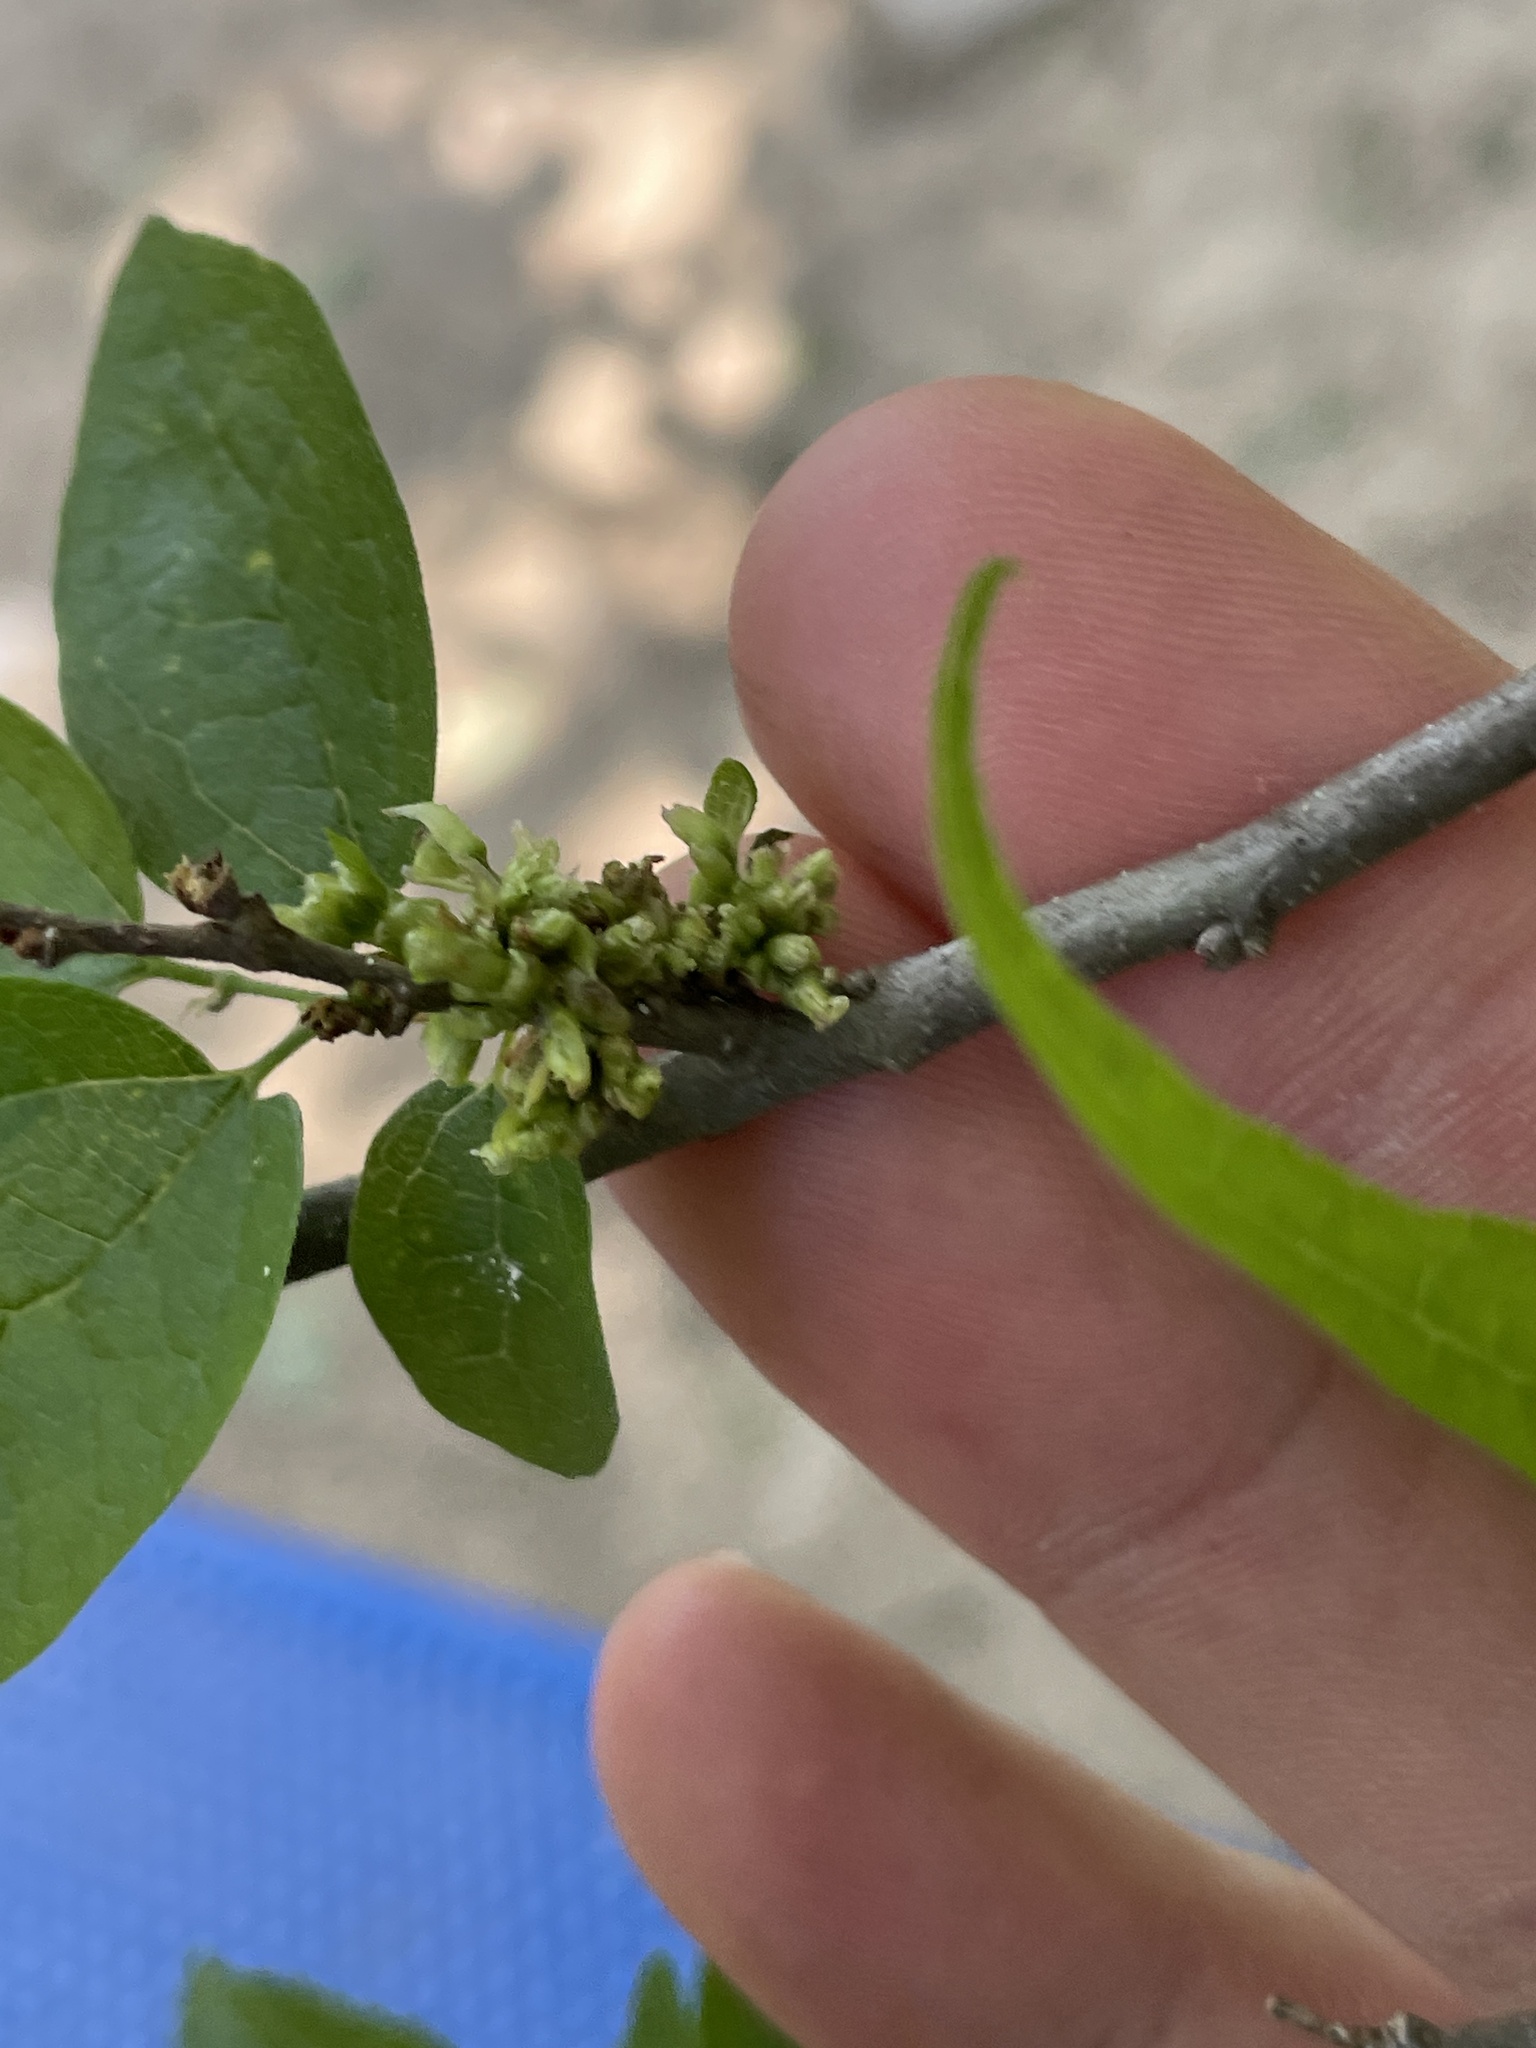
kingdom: Animalia
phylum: Arthropoda
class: Arachnida
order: Trombidiformes
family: Eriophyidae
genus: Aceria
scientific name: Aceria
